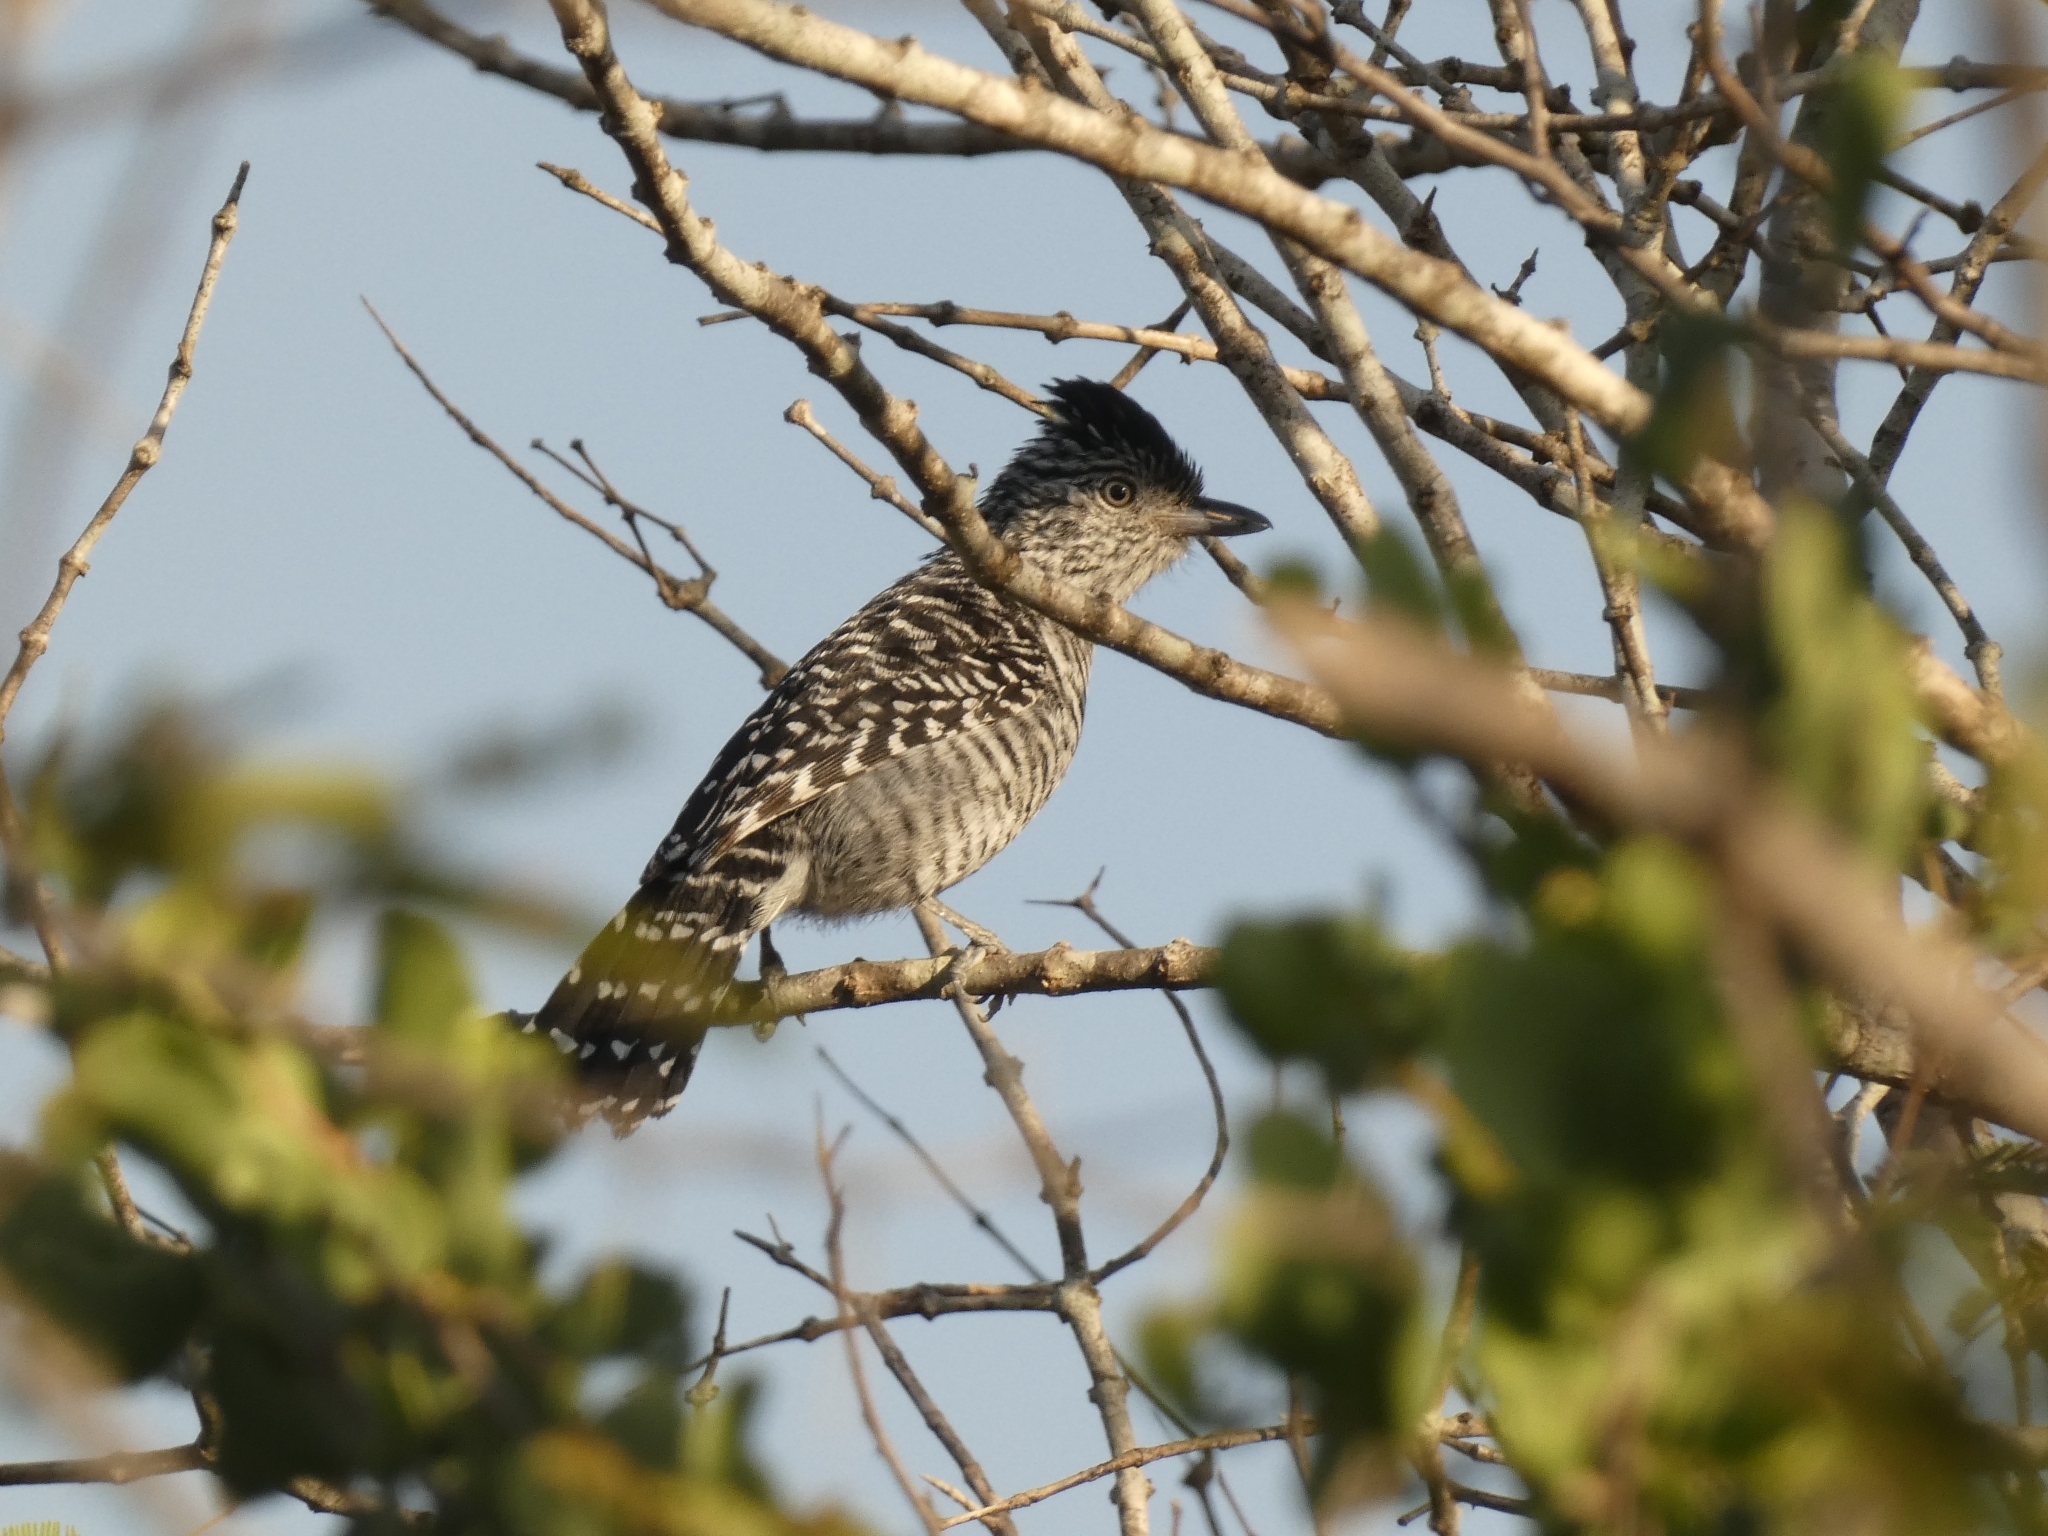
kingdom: Animalia
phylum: Chordata
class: Aves
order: Passeriformes
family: Thamnophilidae
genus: Thamnophilus
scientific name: Thamnophilus doliatus
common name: Barred antshrike
